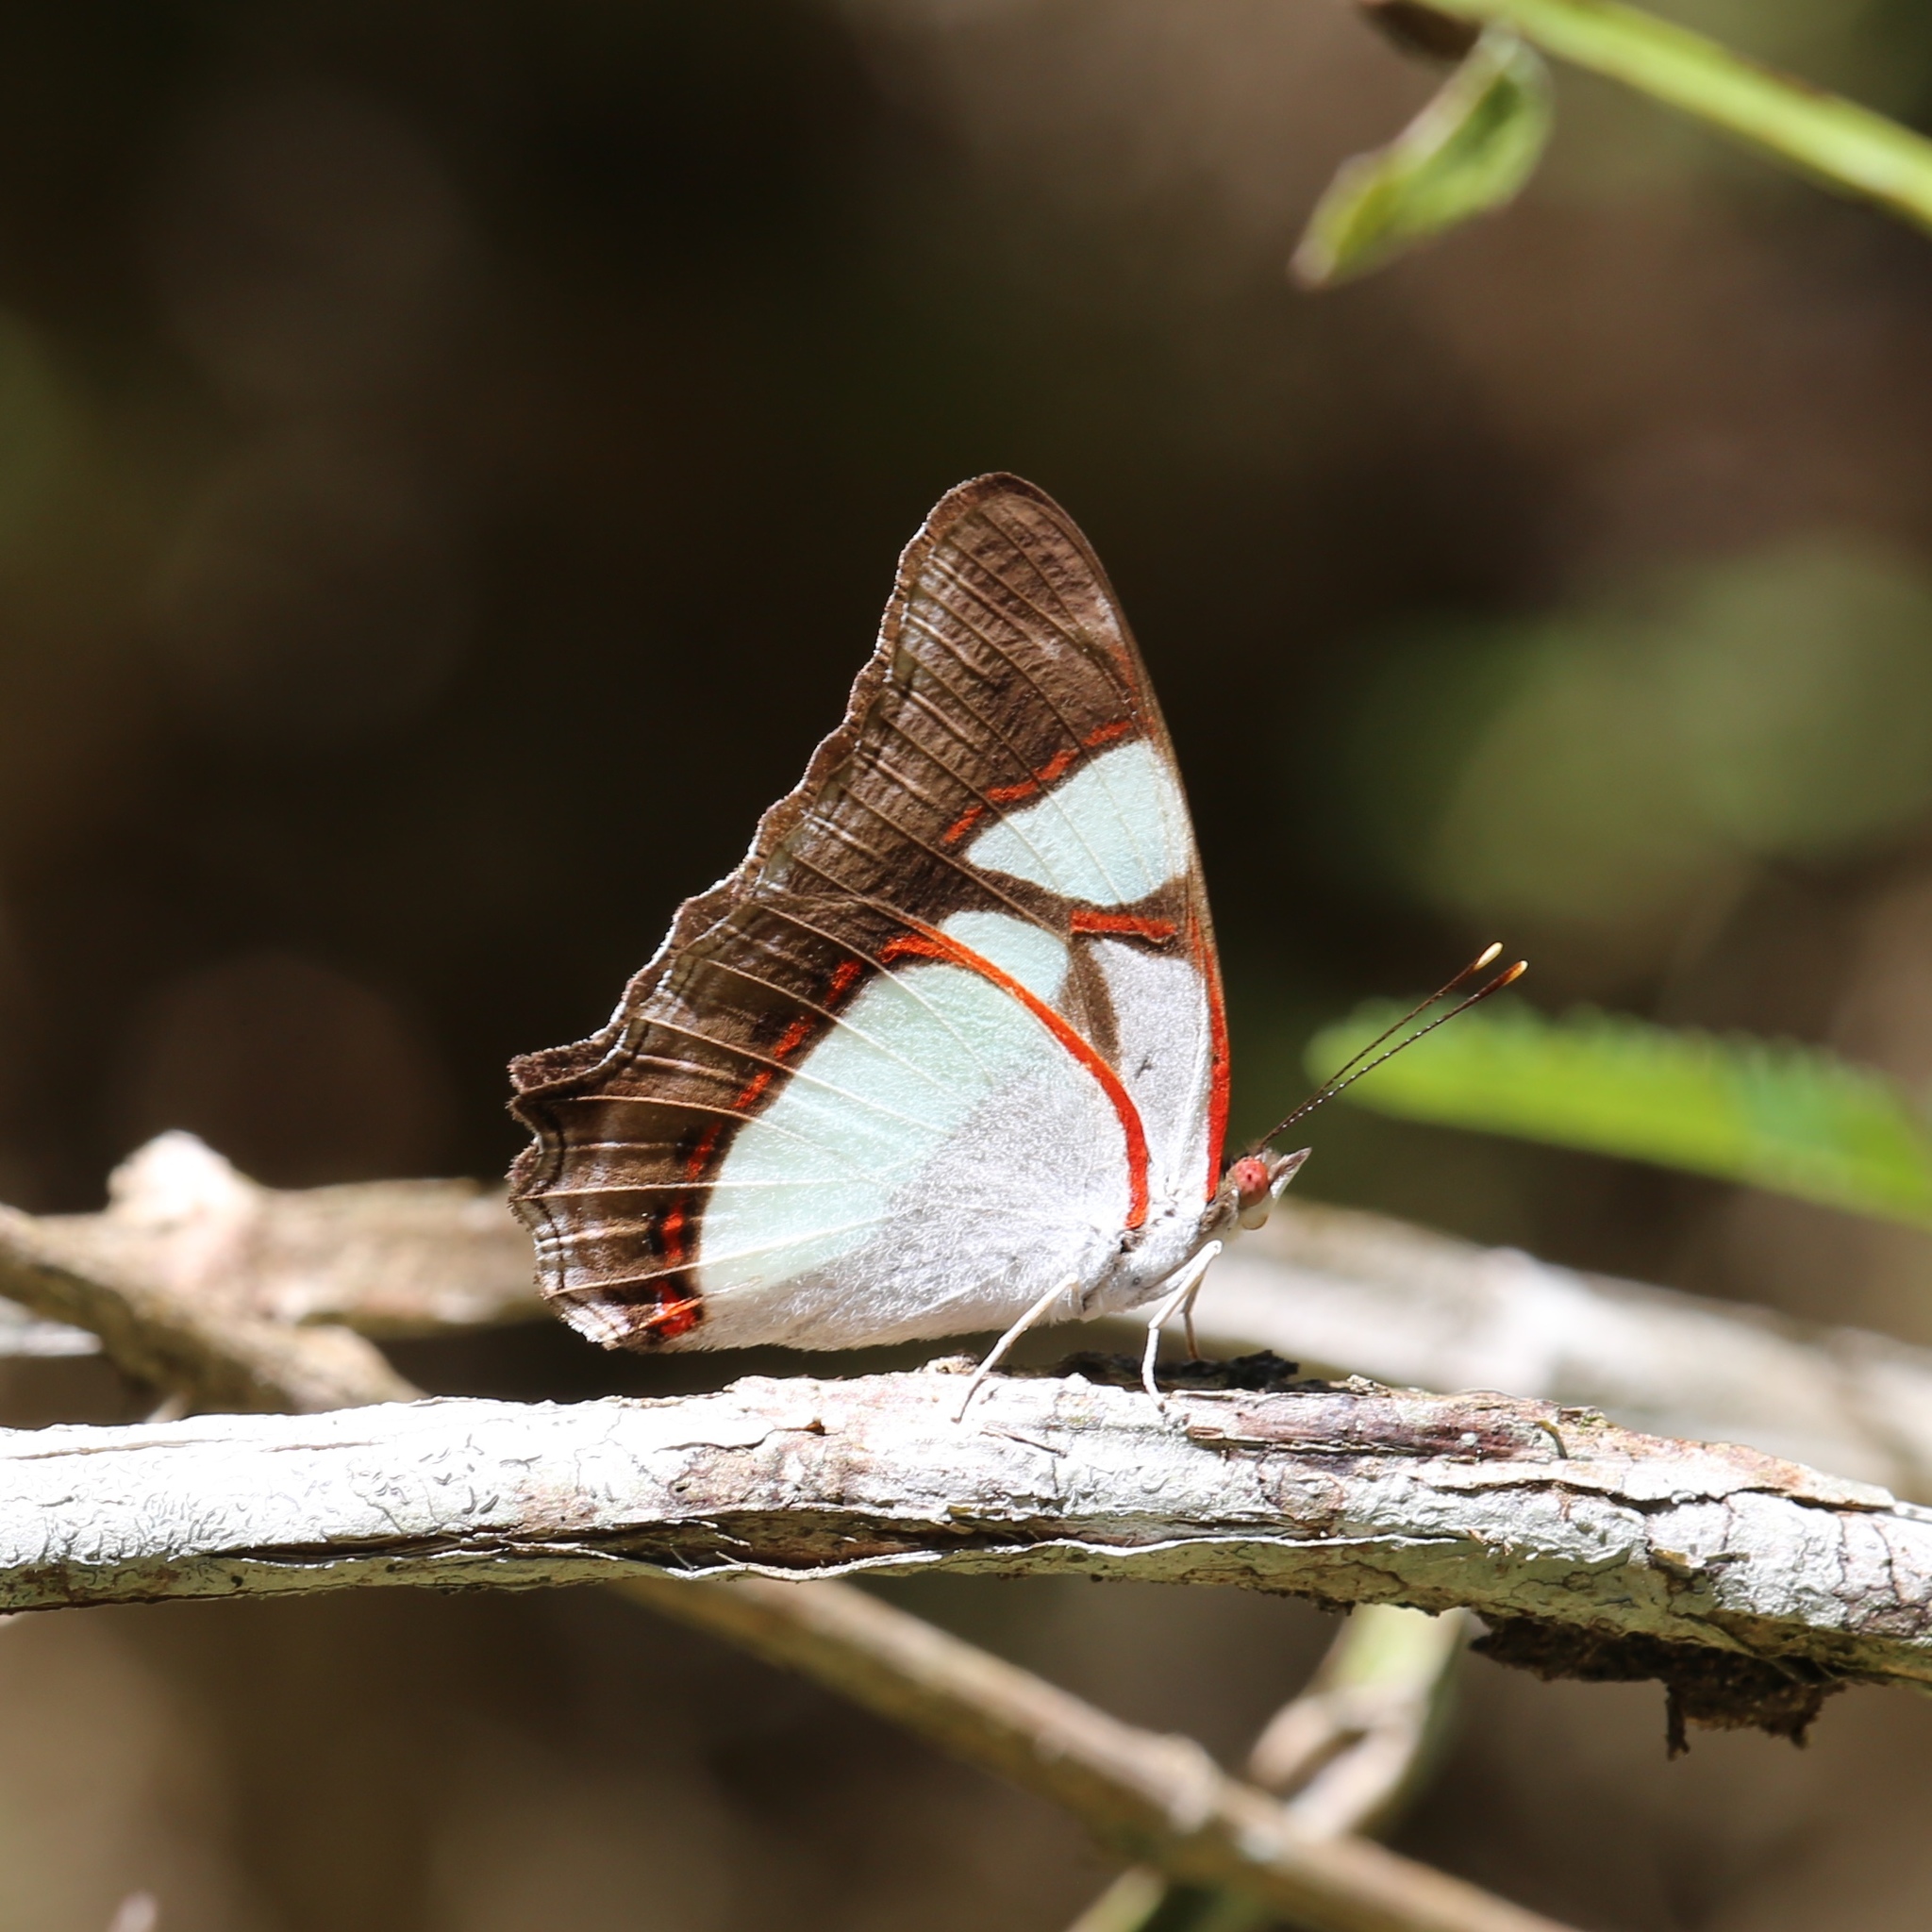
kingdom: Animalia
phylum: Arthropoda
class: Insecta
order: Lepidoptera
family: Nymphalidae
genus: Pyrrhogyra
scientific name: Pyrrhogyra neaerea
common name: Leading red-ring
